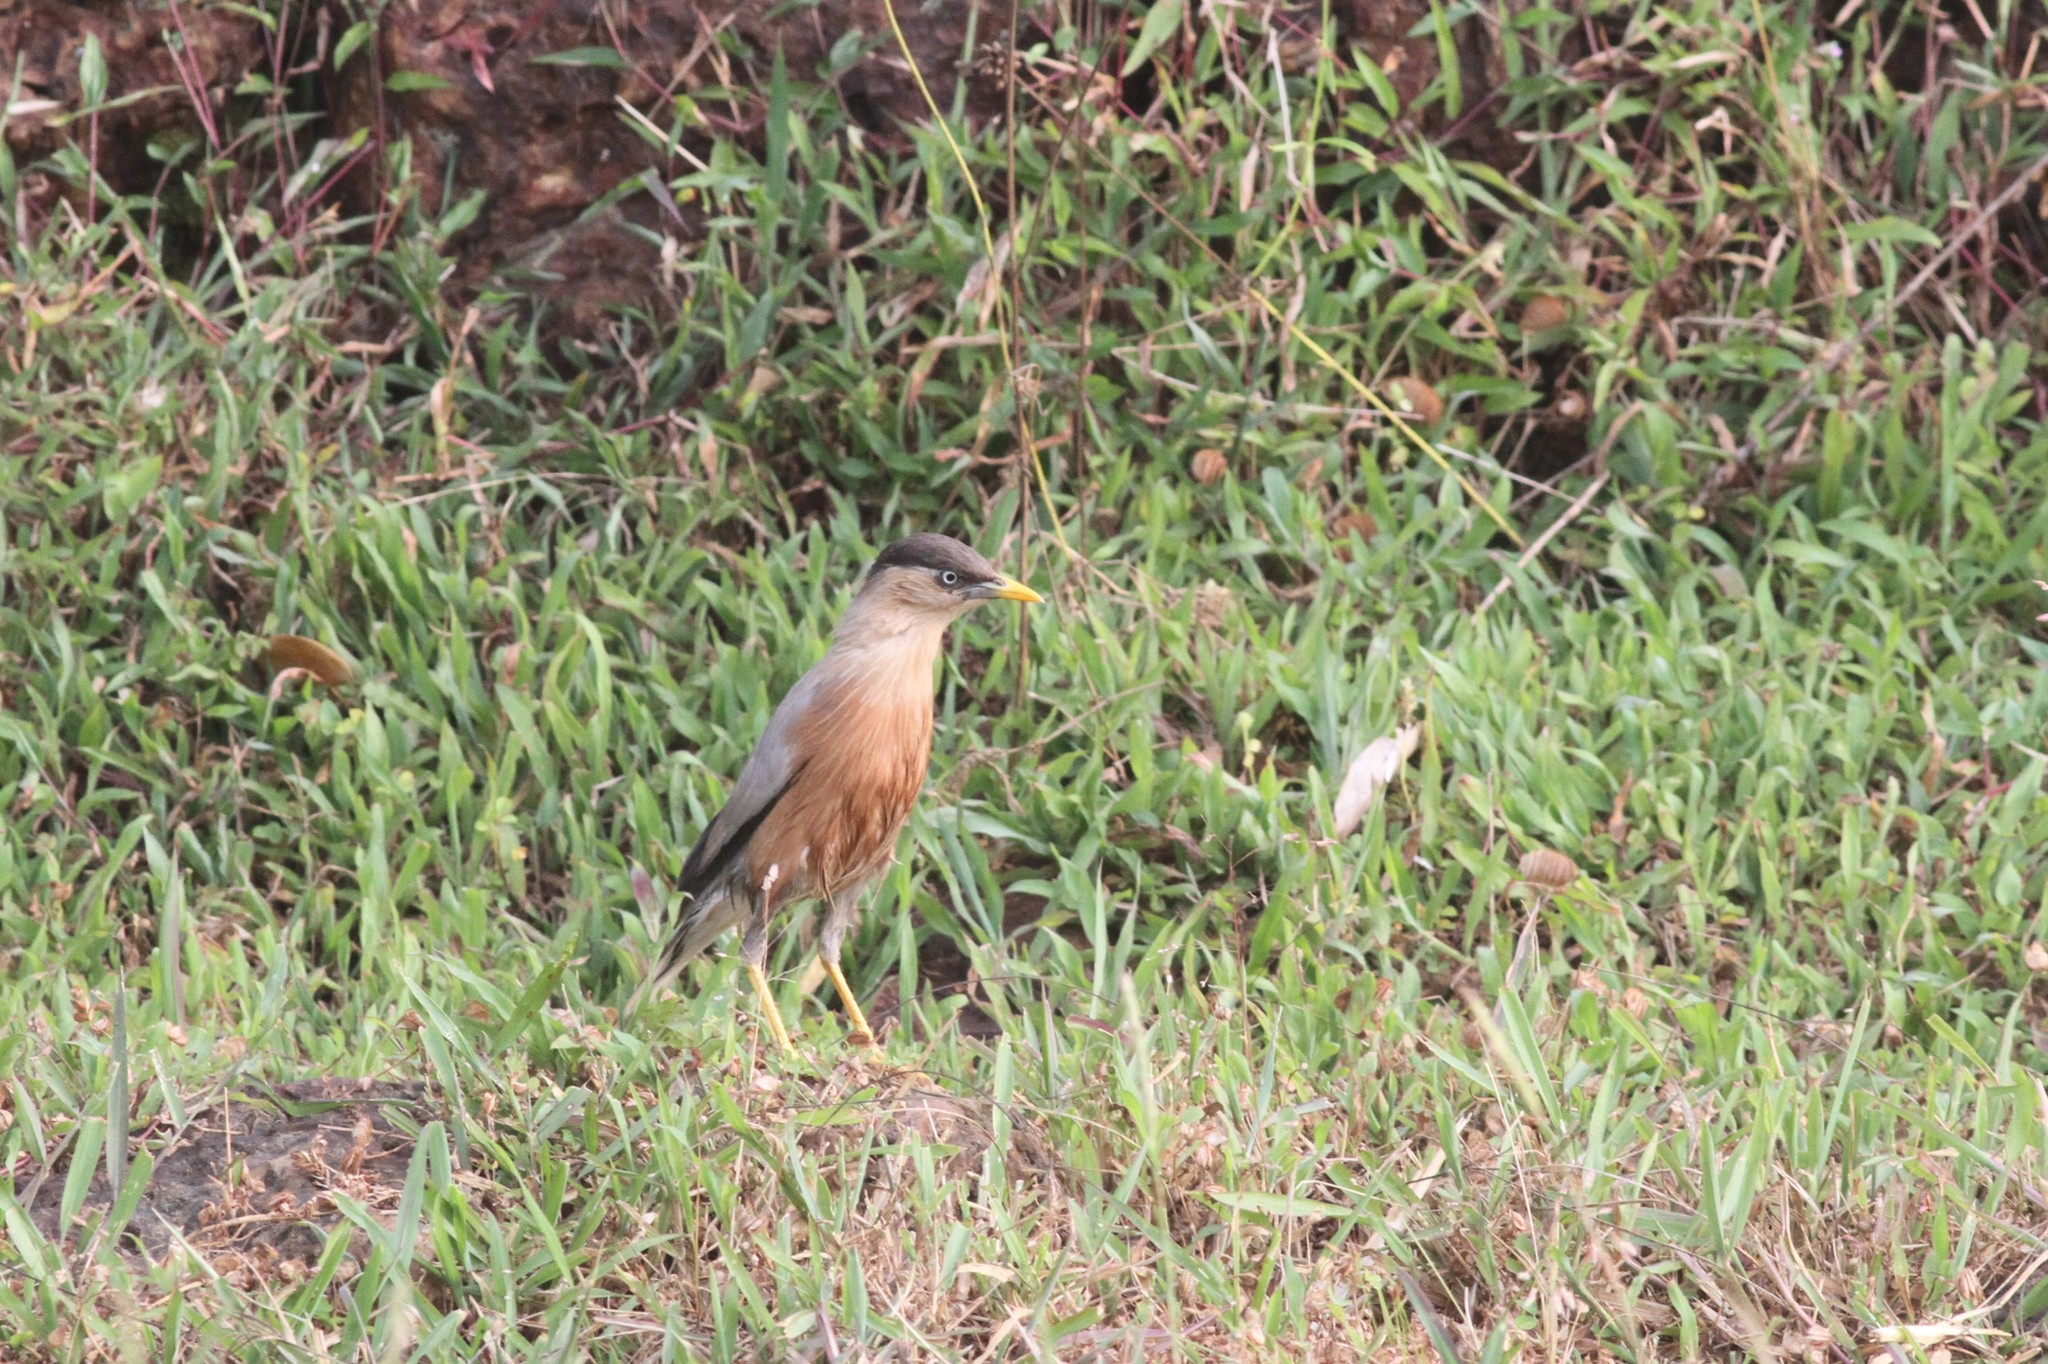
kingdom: Animalia
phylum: Chordata
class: Aves
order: Passeriformes
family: Sturnidae
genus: Sturnia
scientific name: Sturnia pagodarum
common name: Brahminy starling
